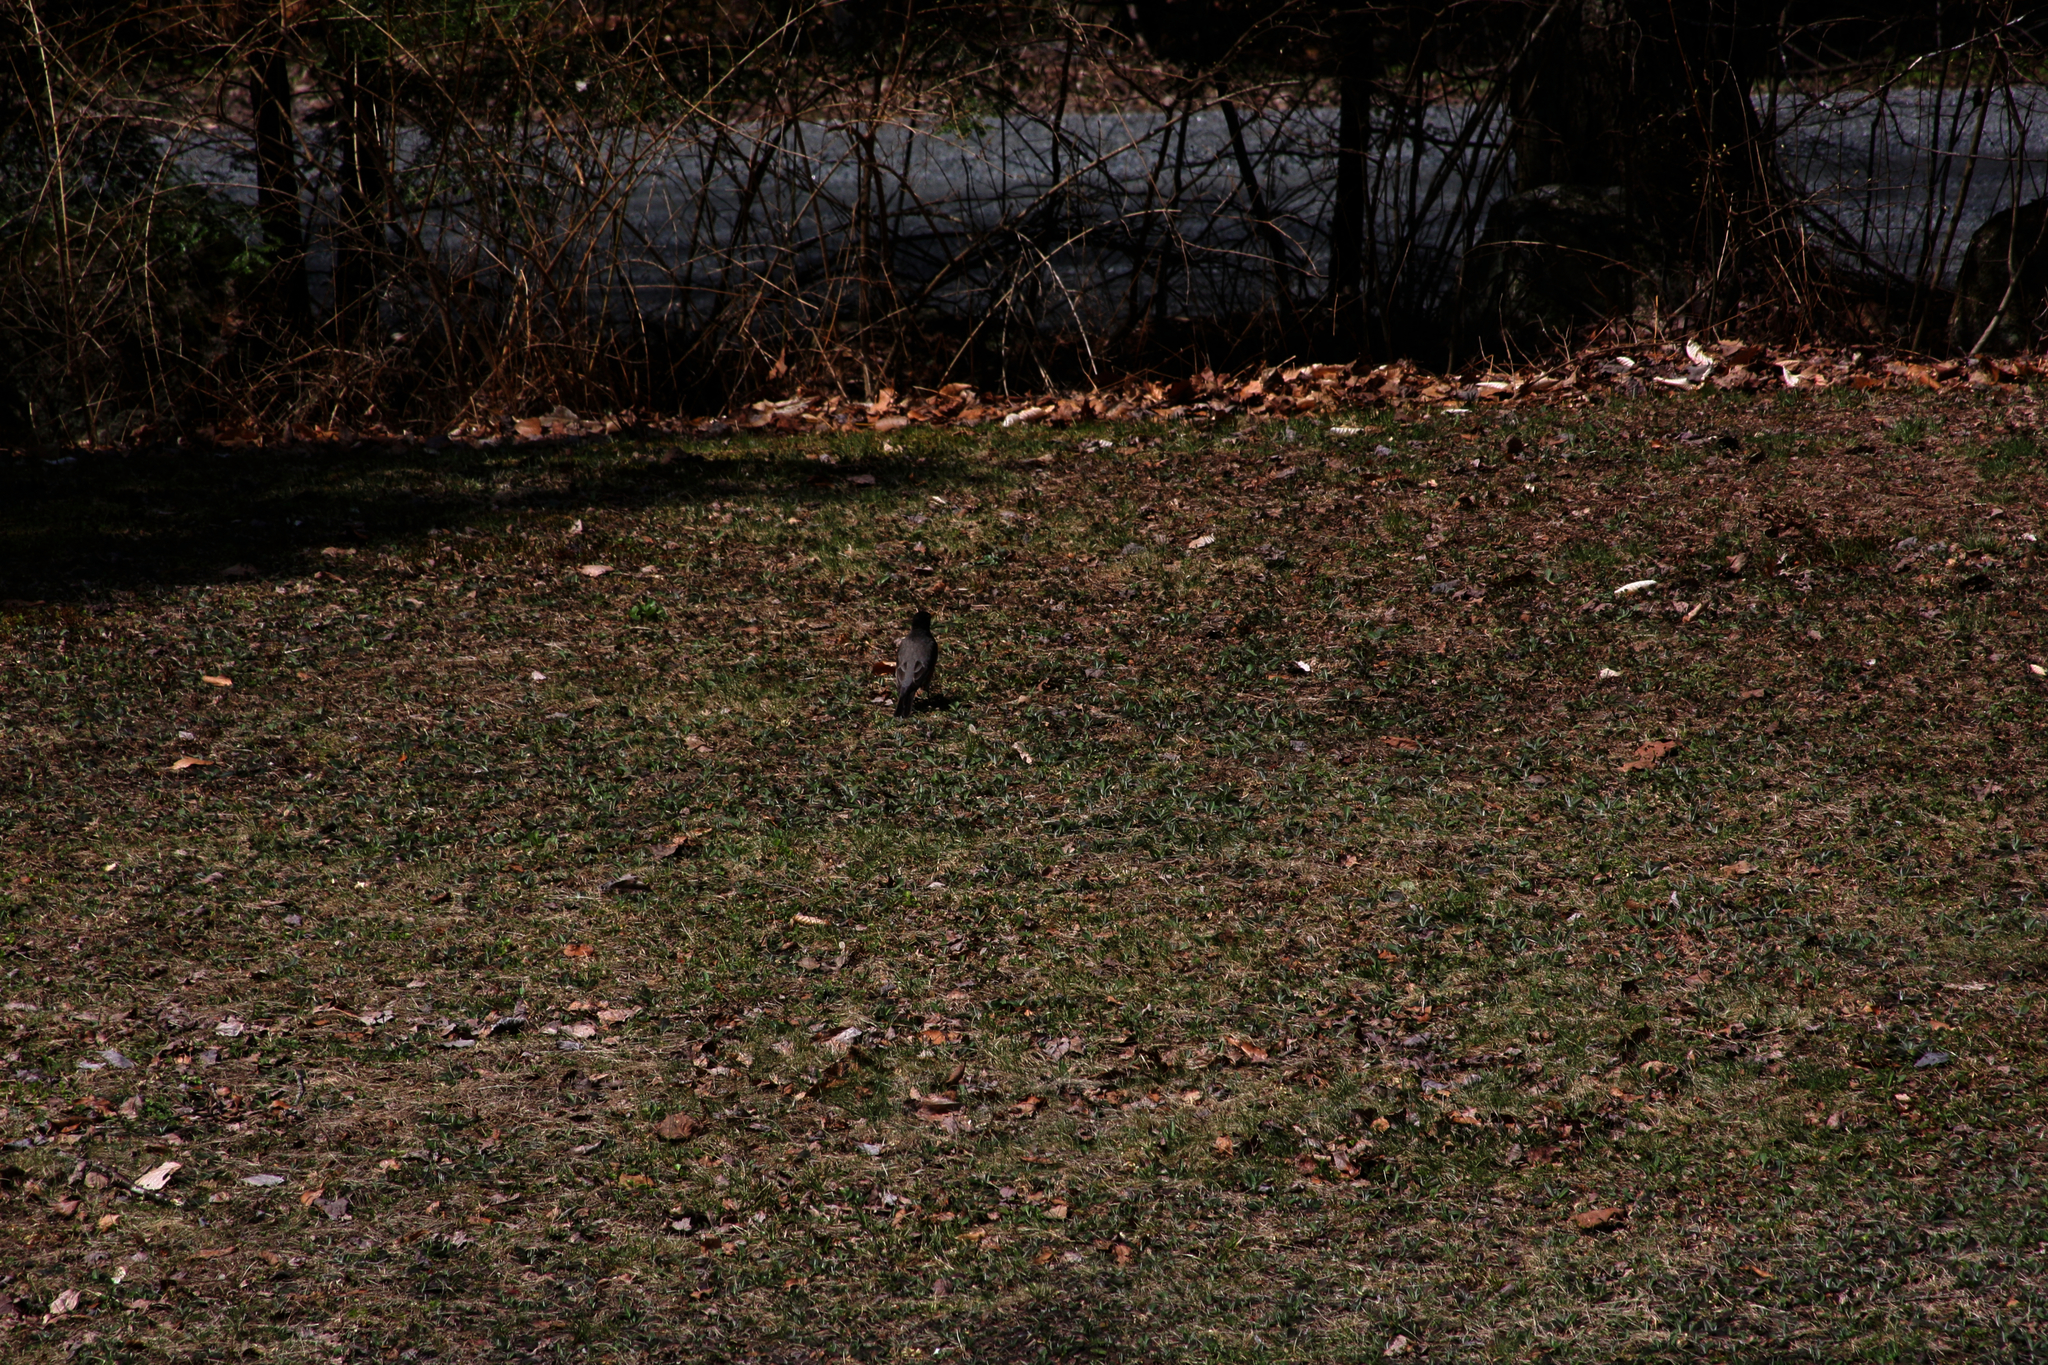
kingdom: Animalia
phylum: Chordata
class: Aves
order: Passeriformes
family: Turdidae
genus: Turdus
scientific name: Turdus migratorius
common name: American robin
